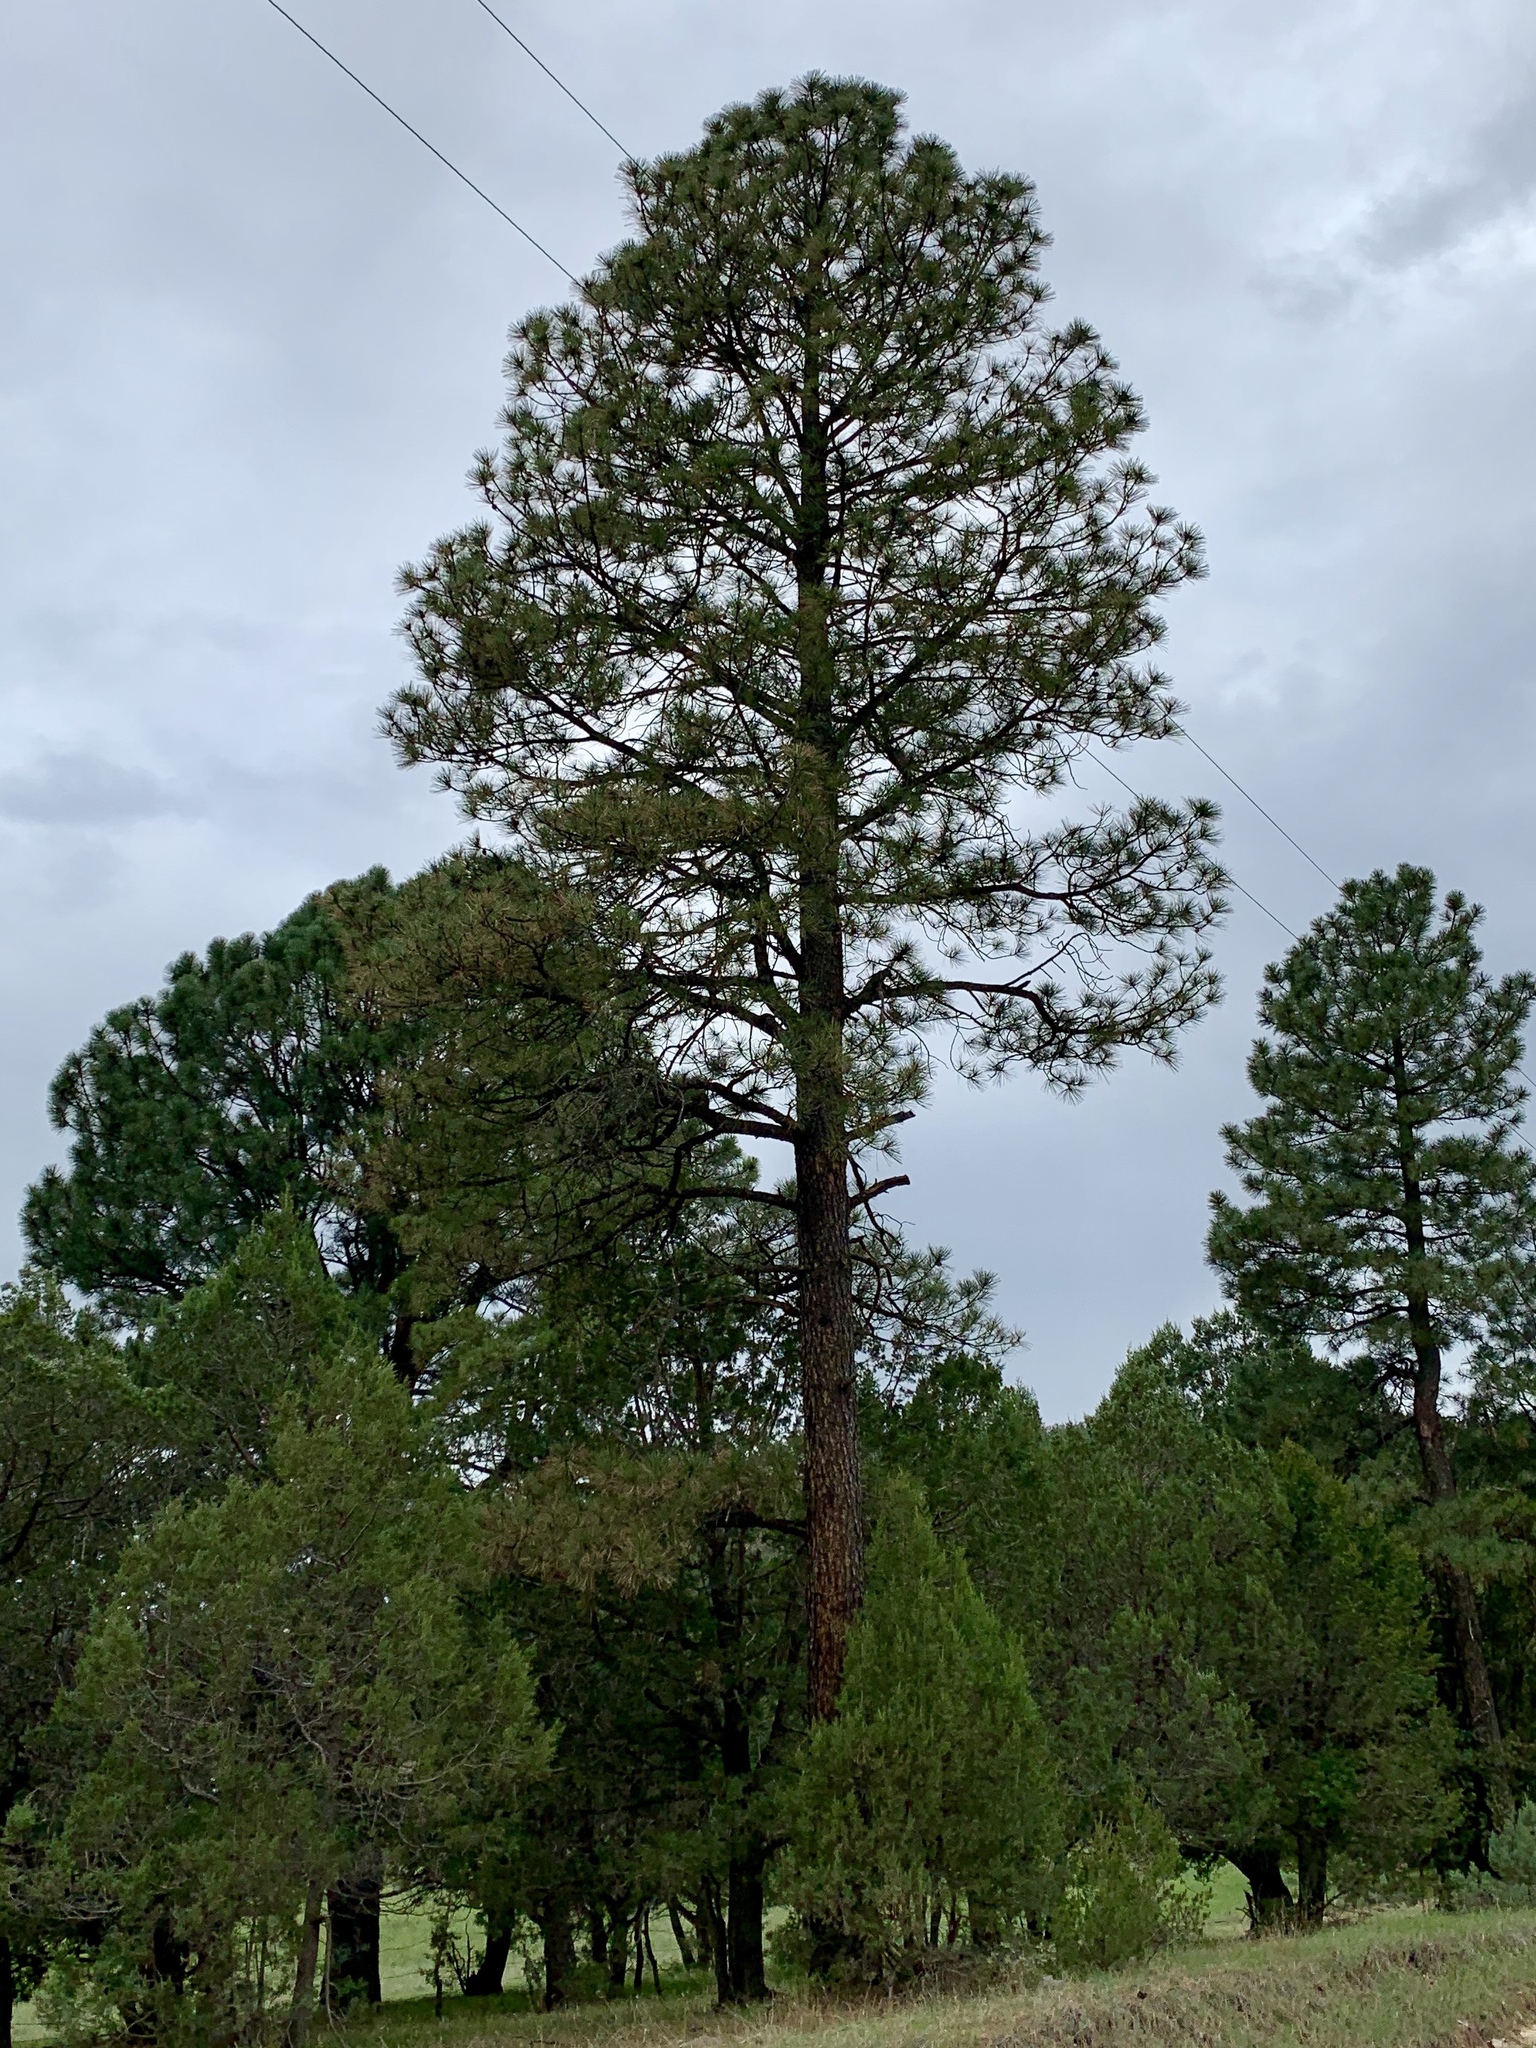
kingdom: Plantae
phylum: Tracheophyta
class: Pinopsida
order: Pinales
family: Pinaceae
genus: Pinus
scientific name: Pinus ponderosa
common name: Western yellow-pine
